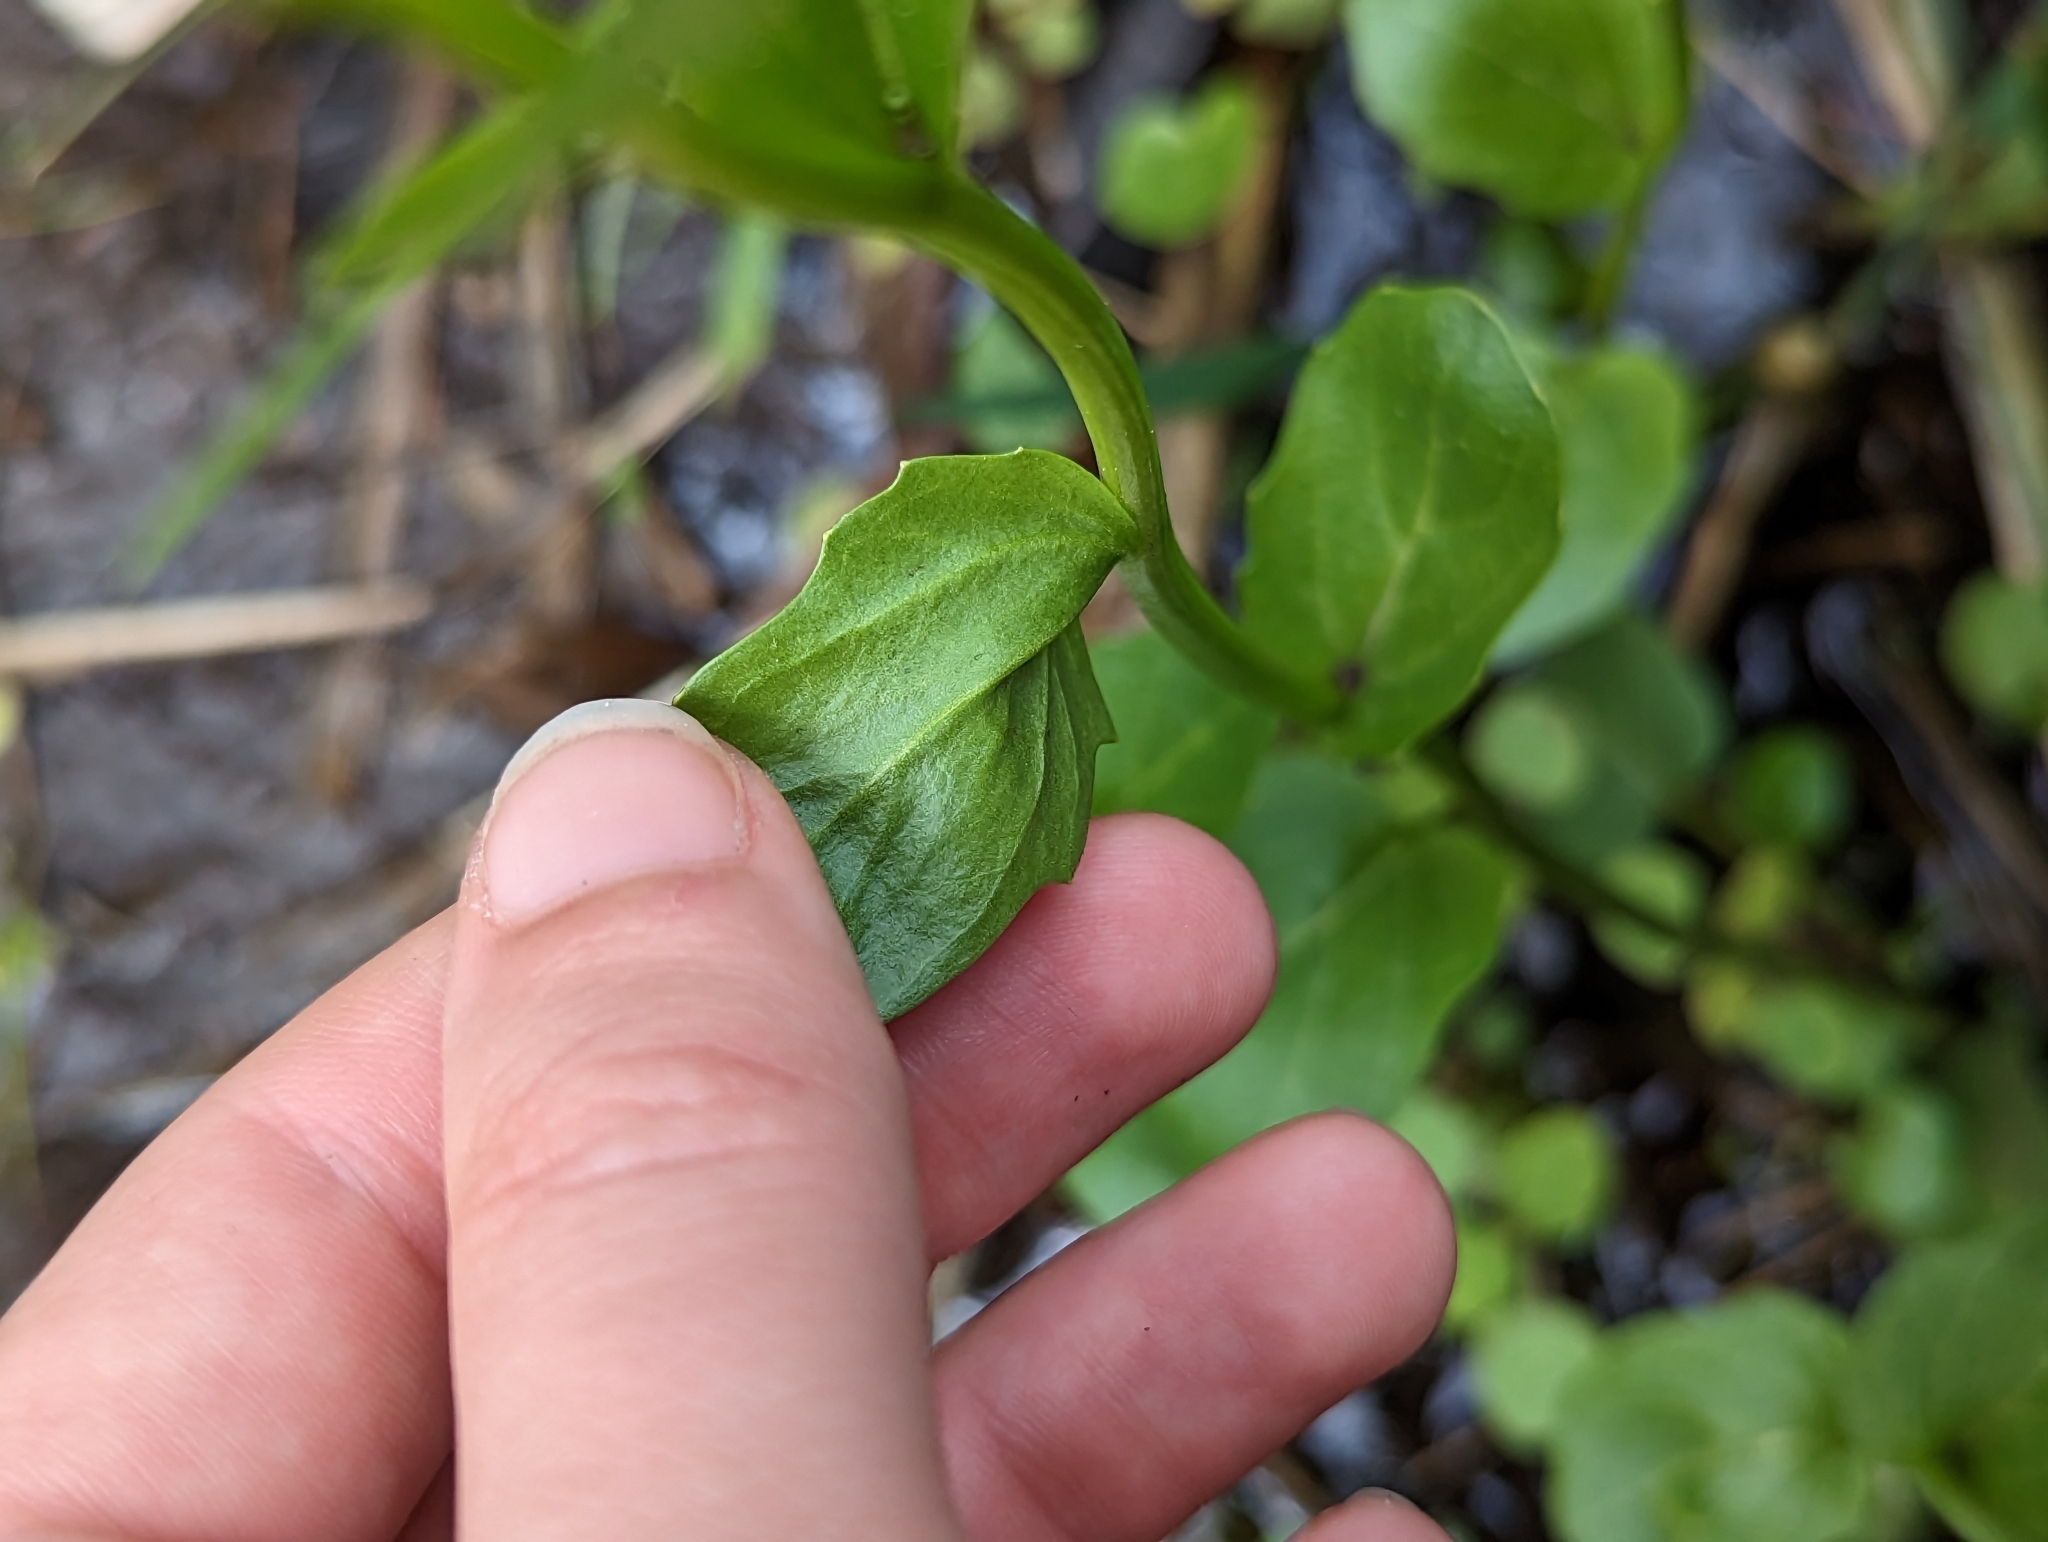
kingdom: Plantae
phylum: Tracheophyta
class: Magnoliopsida
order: Brassicales
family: Brassicaceae
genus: Cardamine
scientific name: Cardamine bulbosa
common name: Spring cress
